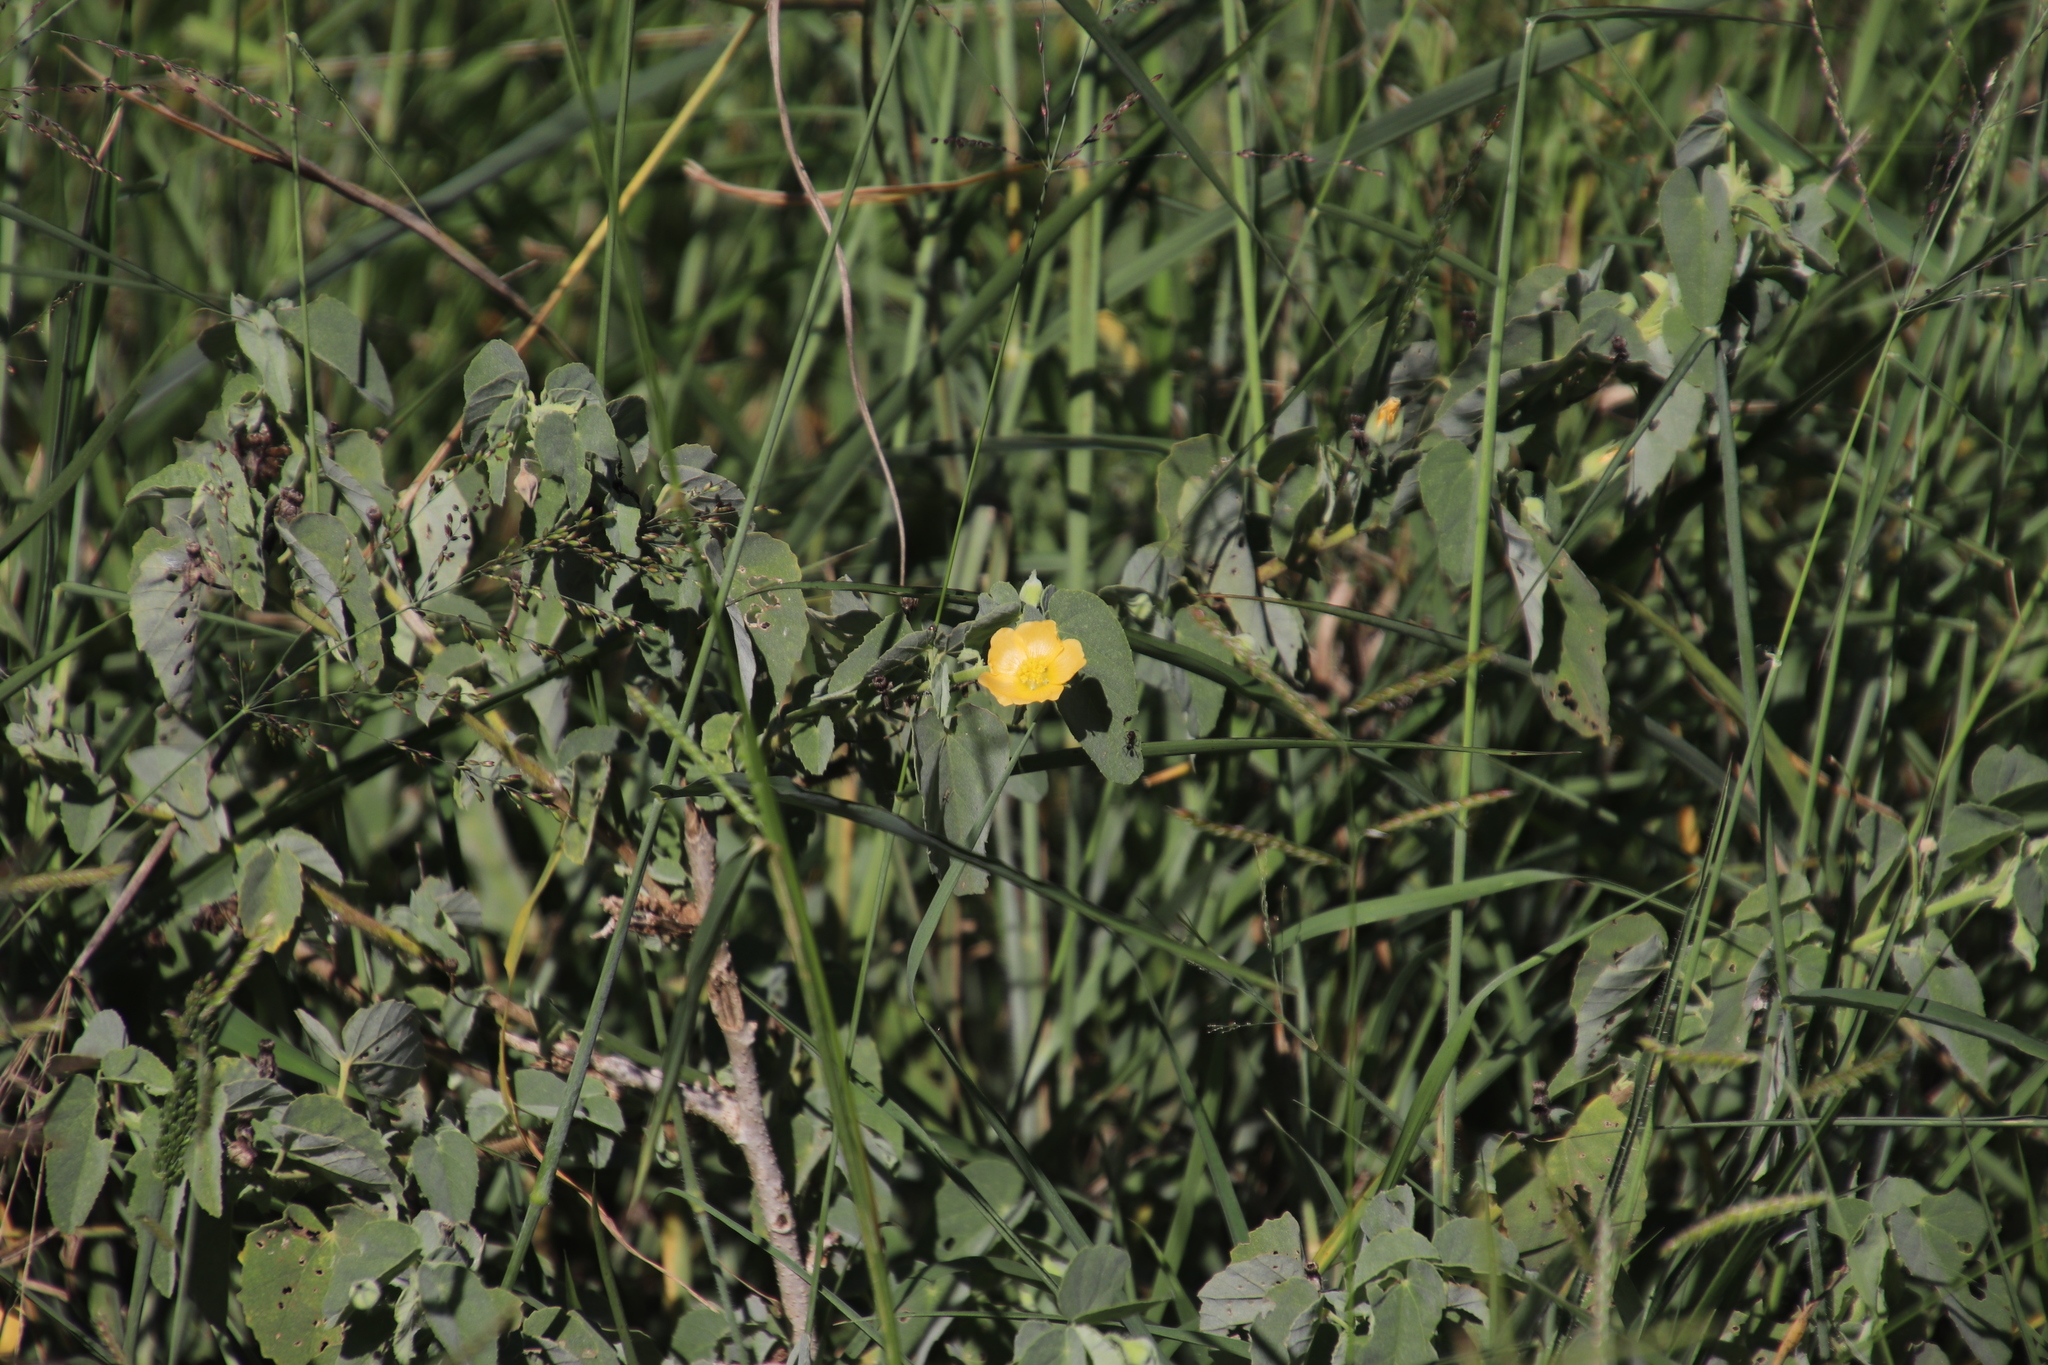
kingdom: Plantae
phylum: Tracheophyta
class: Magnoliopsida
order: Malvales
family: Malvaceae
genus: Abutilon
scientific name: Abutilon austroafricanum
